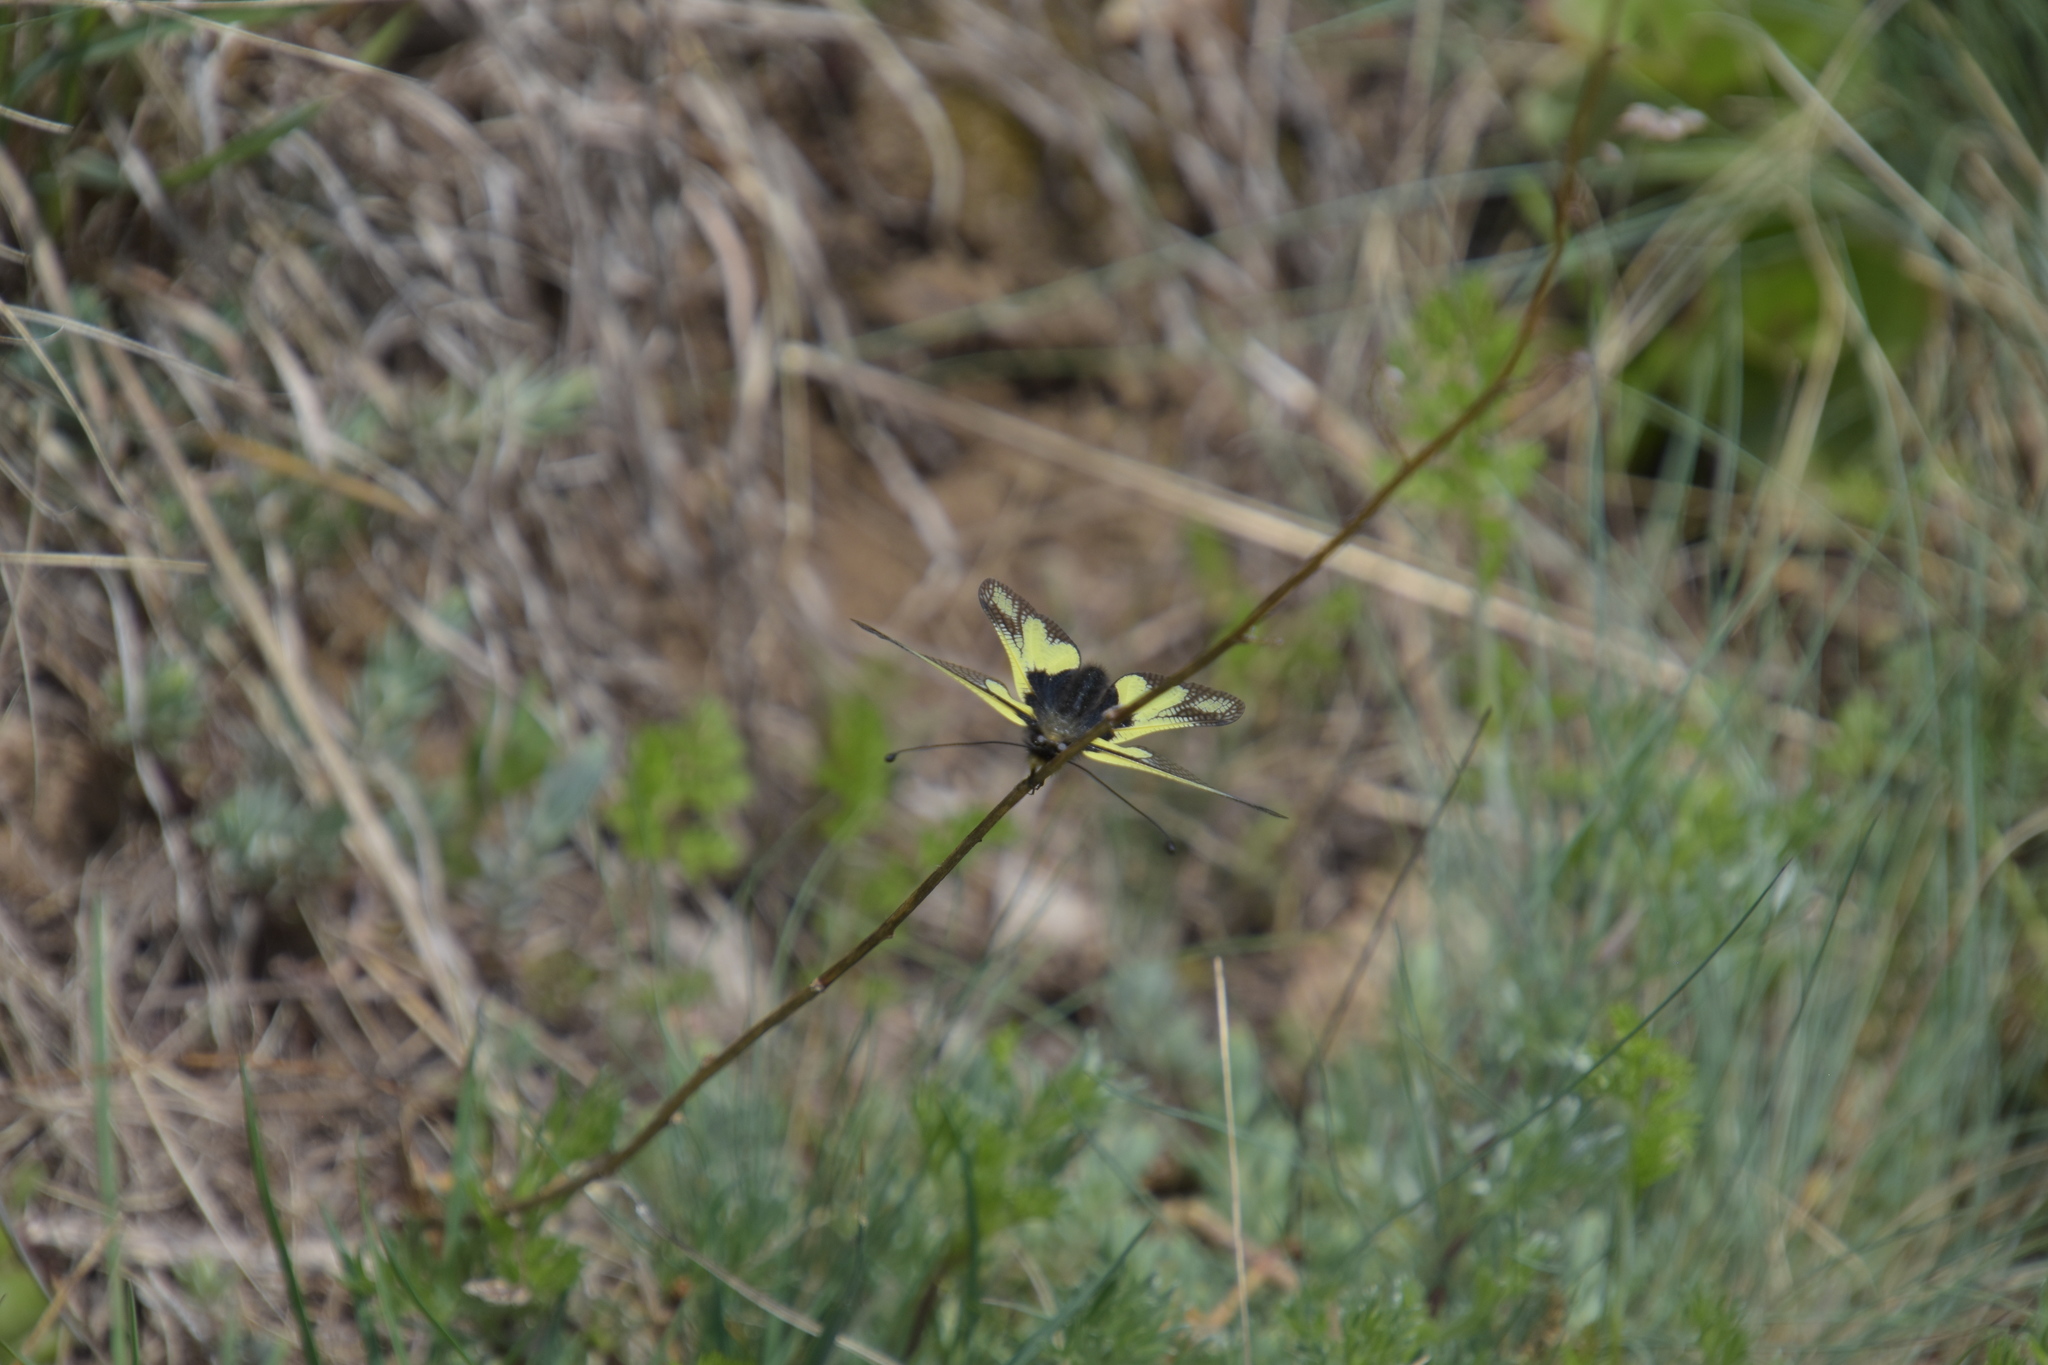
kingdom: Animalia
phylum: Arthropoda
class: Insecta
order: Neuroptera
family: Ascalaphidae
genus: Libelloides
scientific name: Libelloides coccajus
